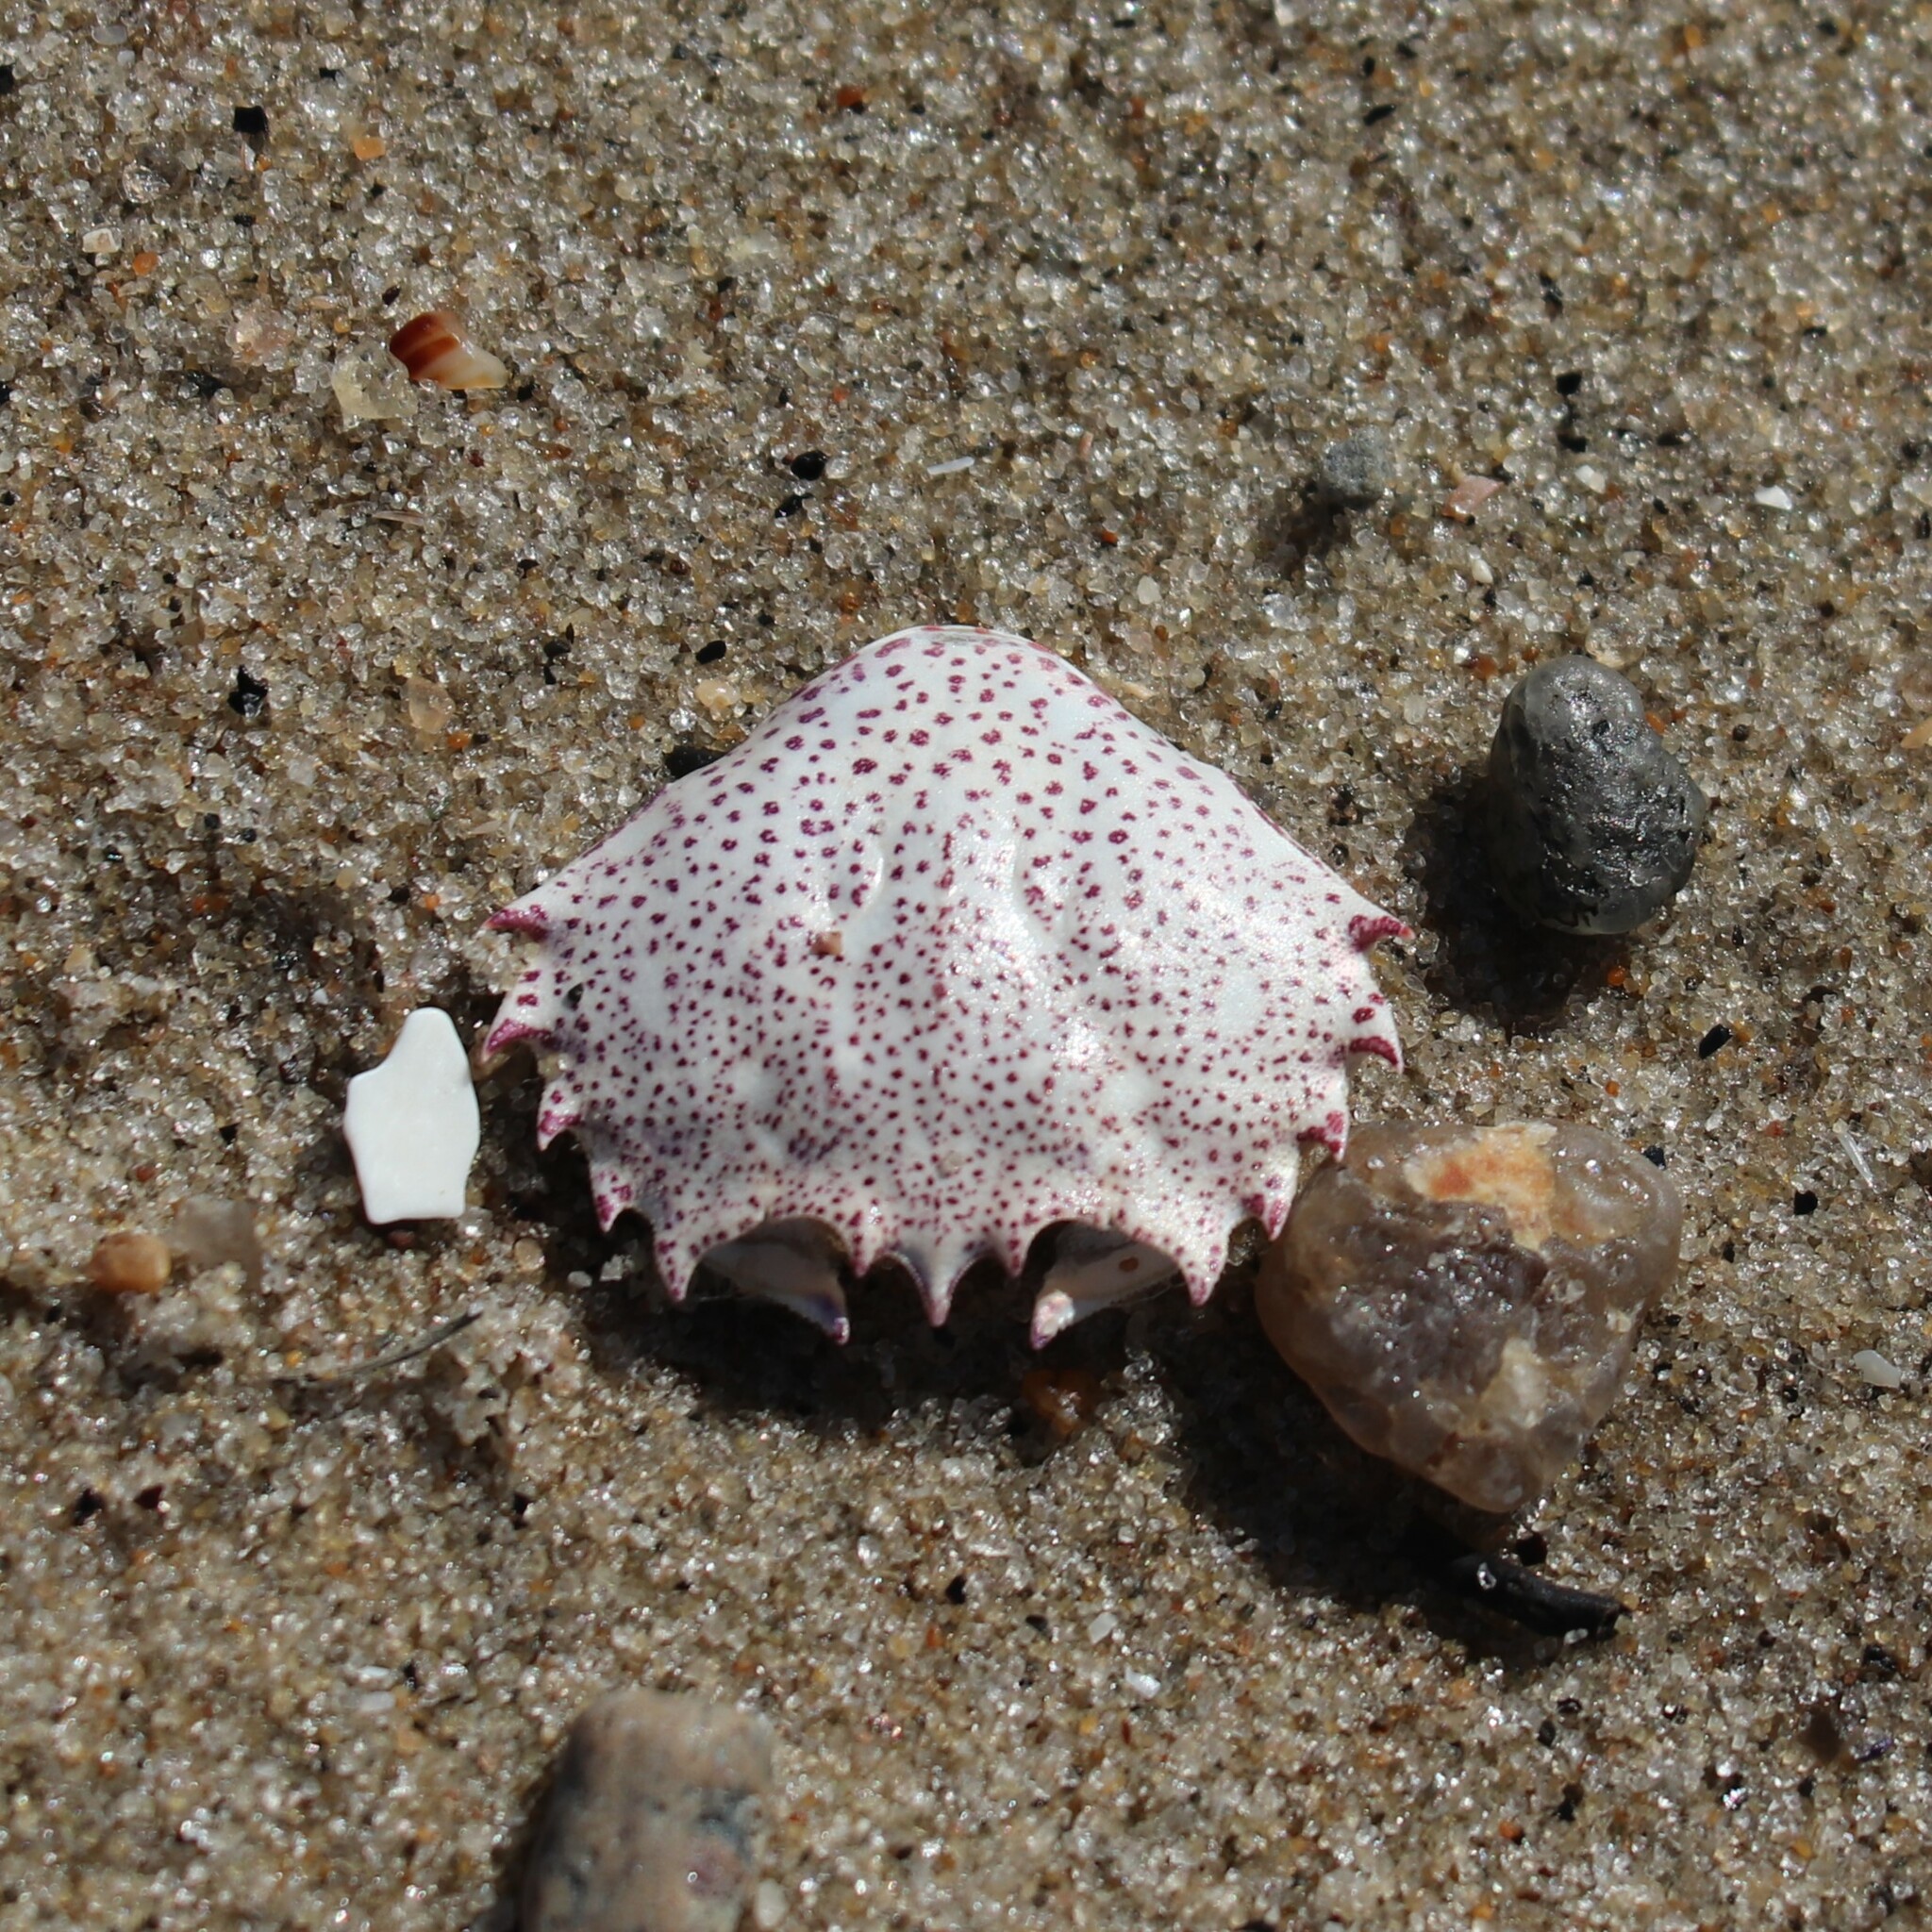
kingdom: Animalia
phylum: Arthropoda
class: Malacostraca
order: Decapoda
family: Ovalipidae
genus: Ovalipes
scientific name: Ovalipes ocellatus
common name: Lady crab
